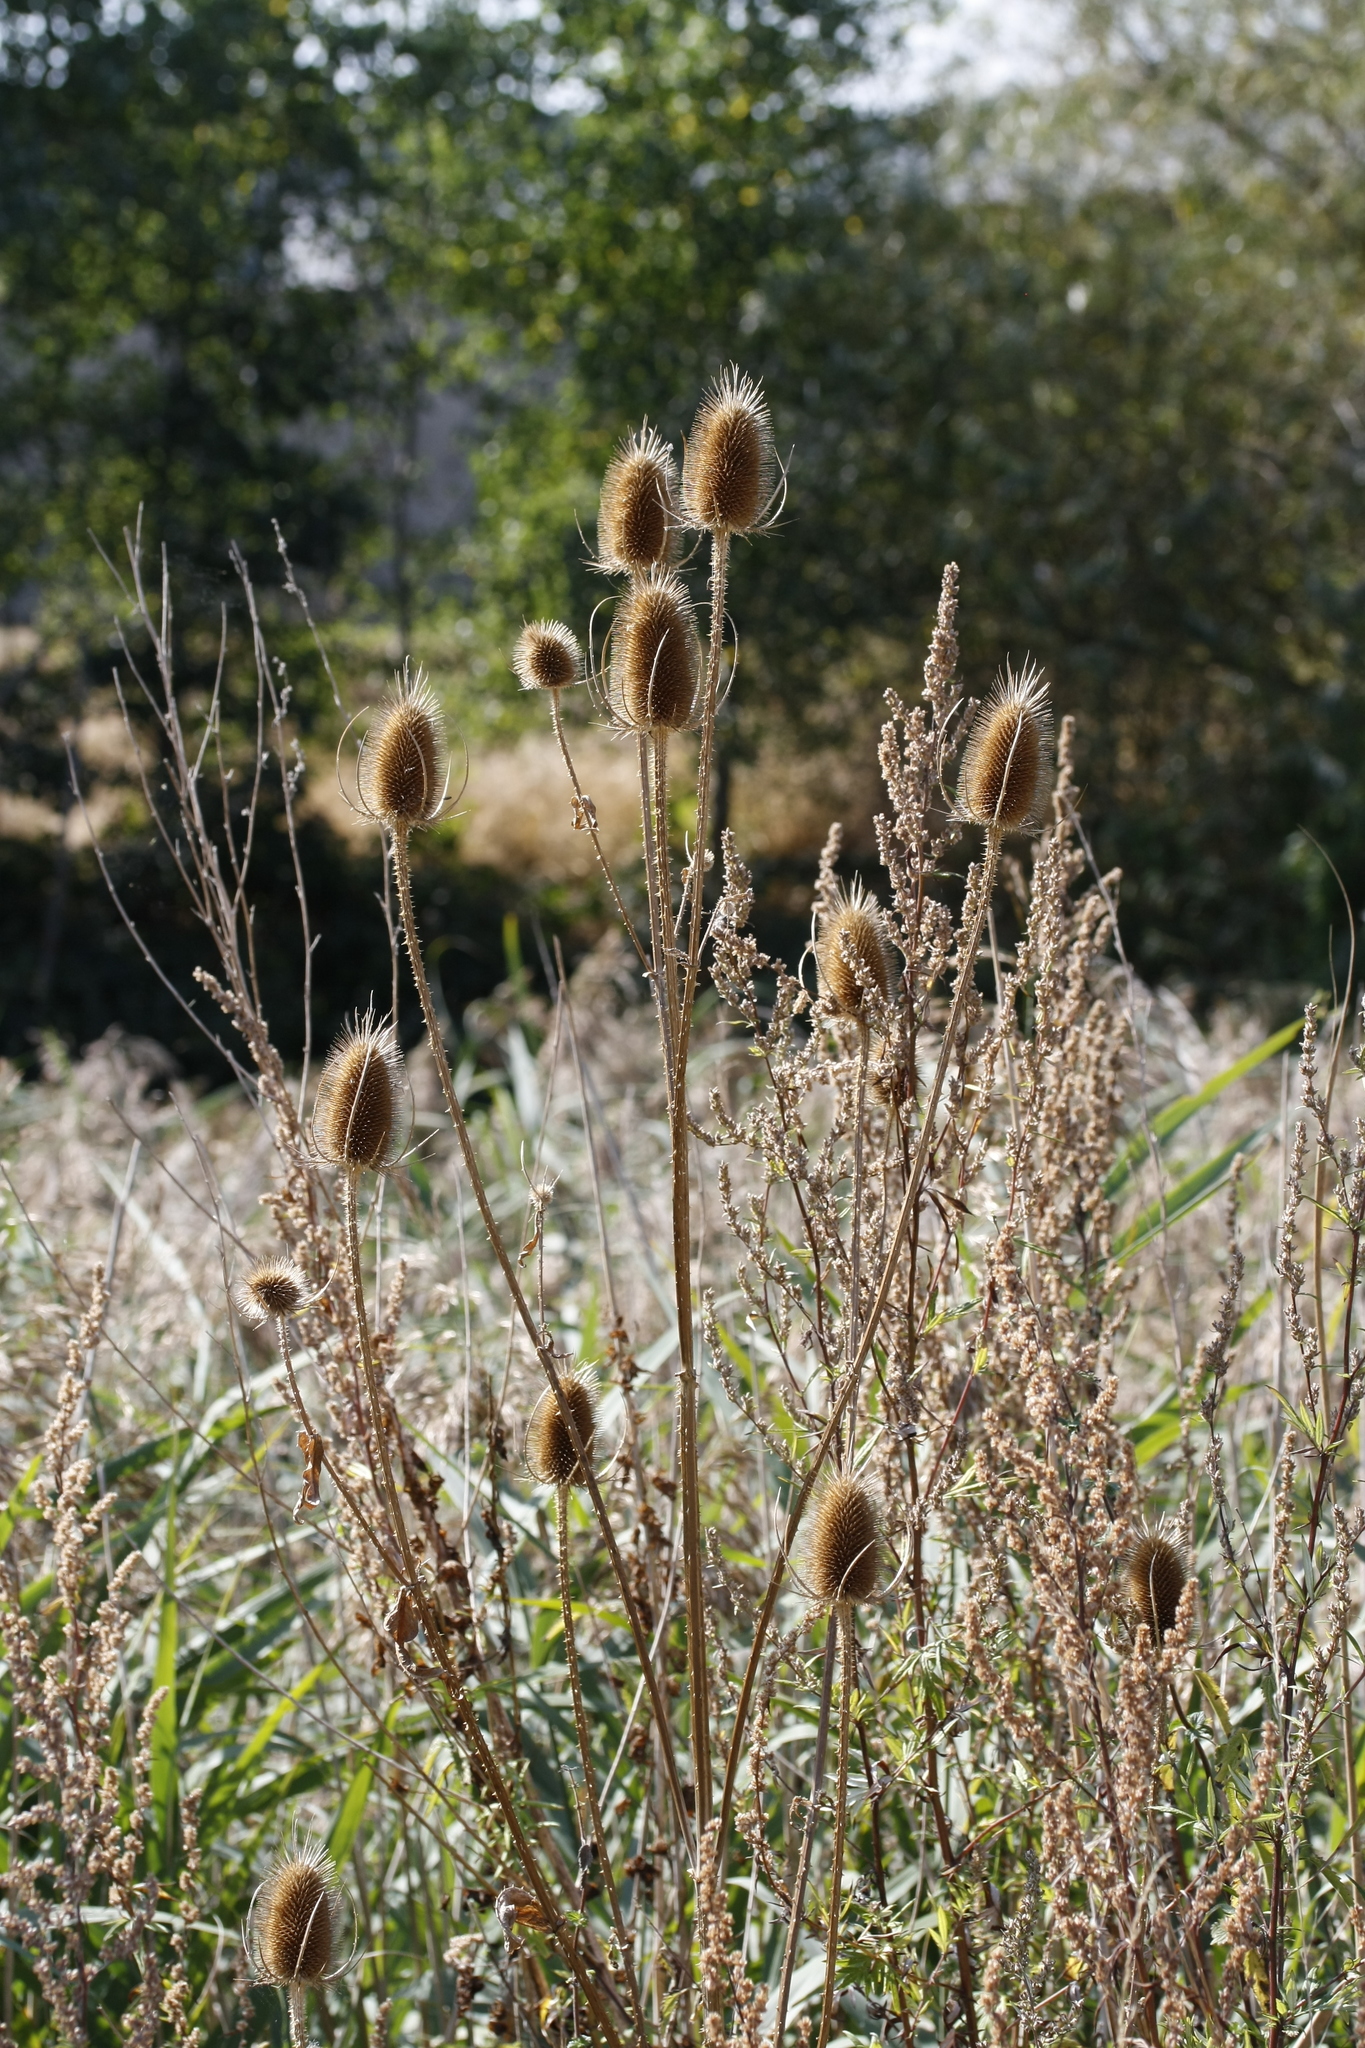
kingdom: Plantae
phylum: Tracheophyta
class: Magnoliopsida
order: Dipsacales
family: Caprifoliaceae
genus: Dipsacus
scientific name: Dipsacus fullonum
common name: Teasel
